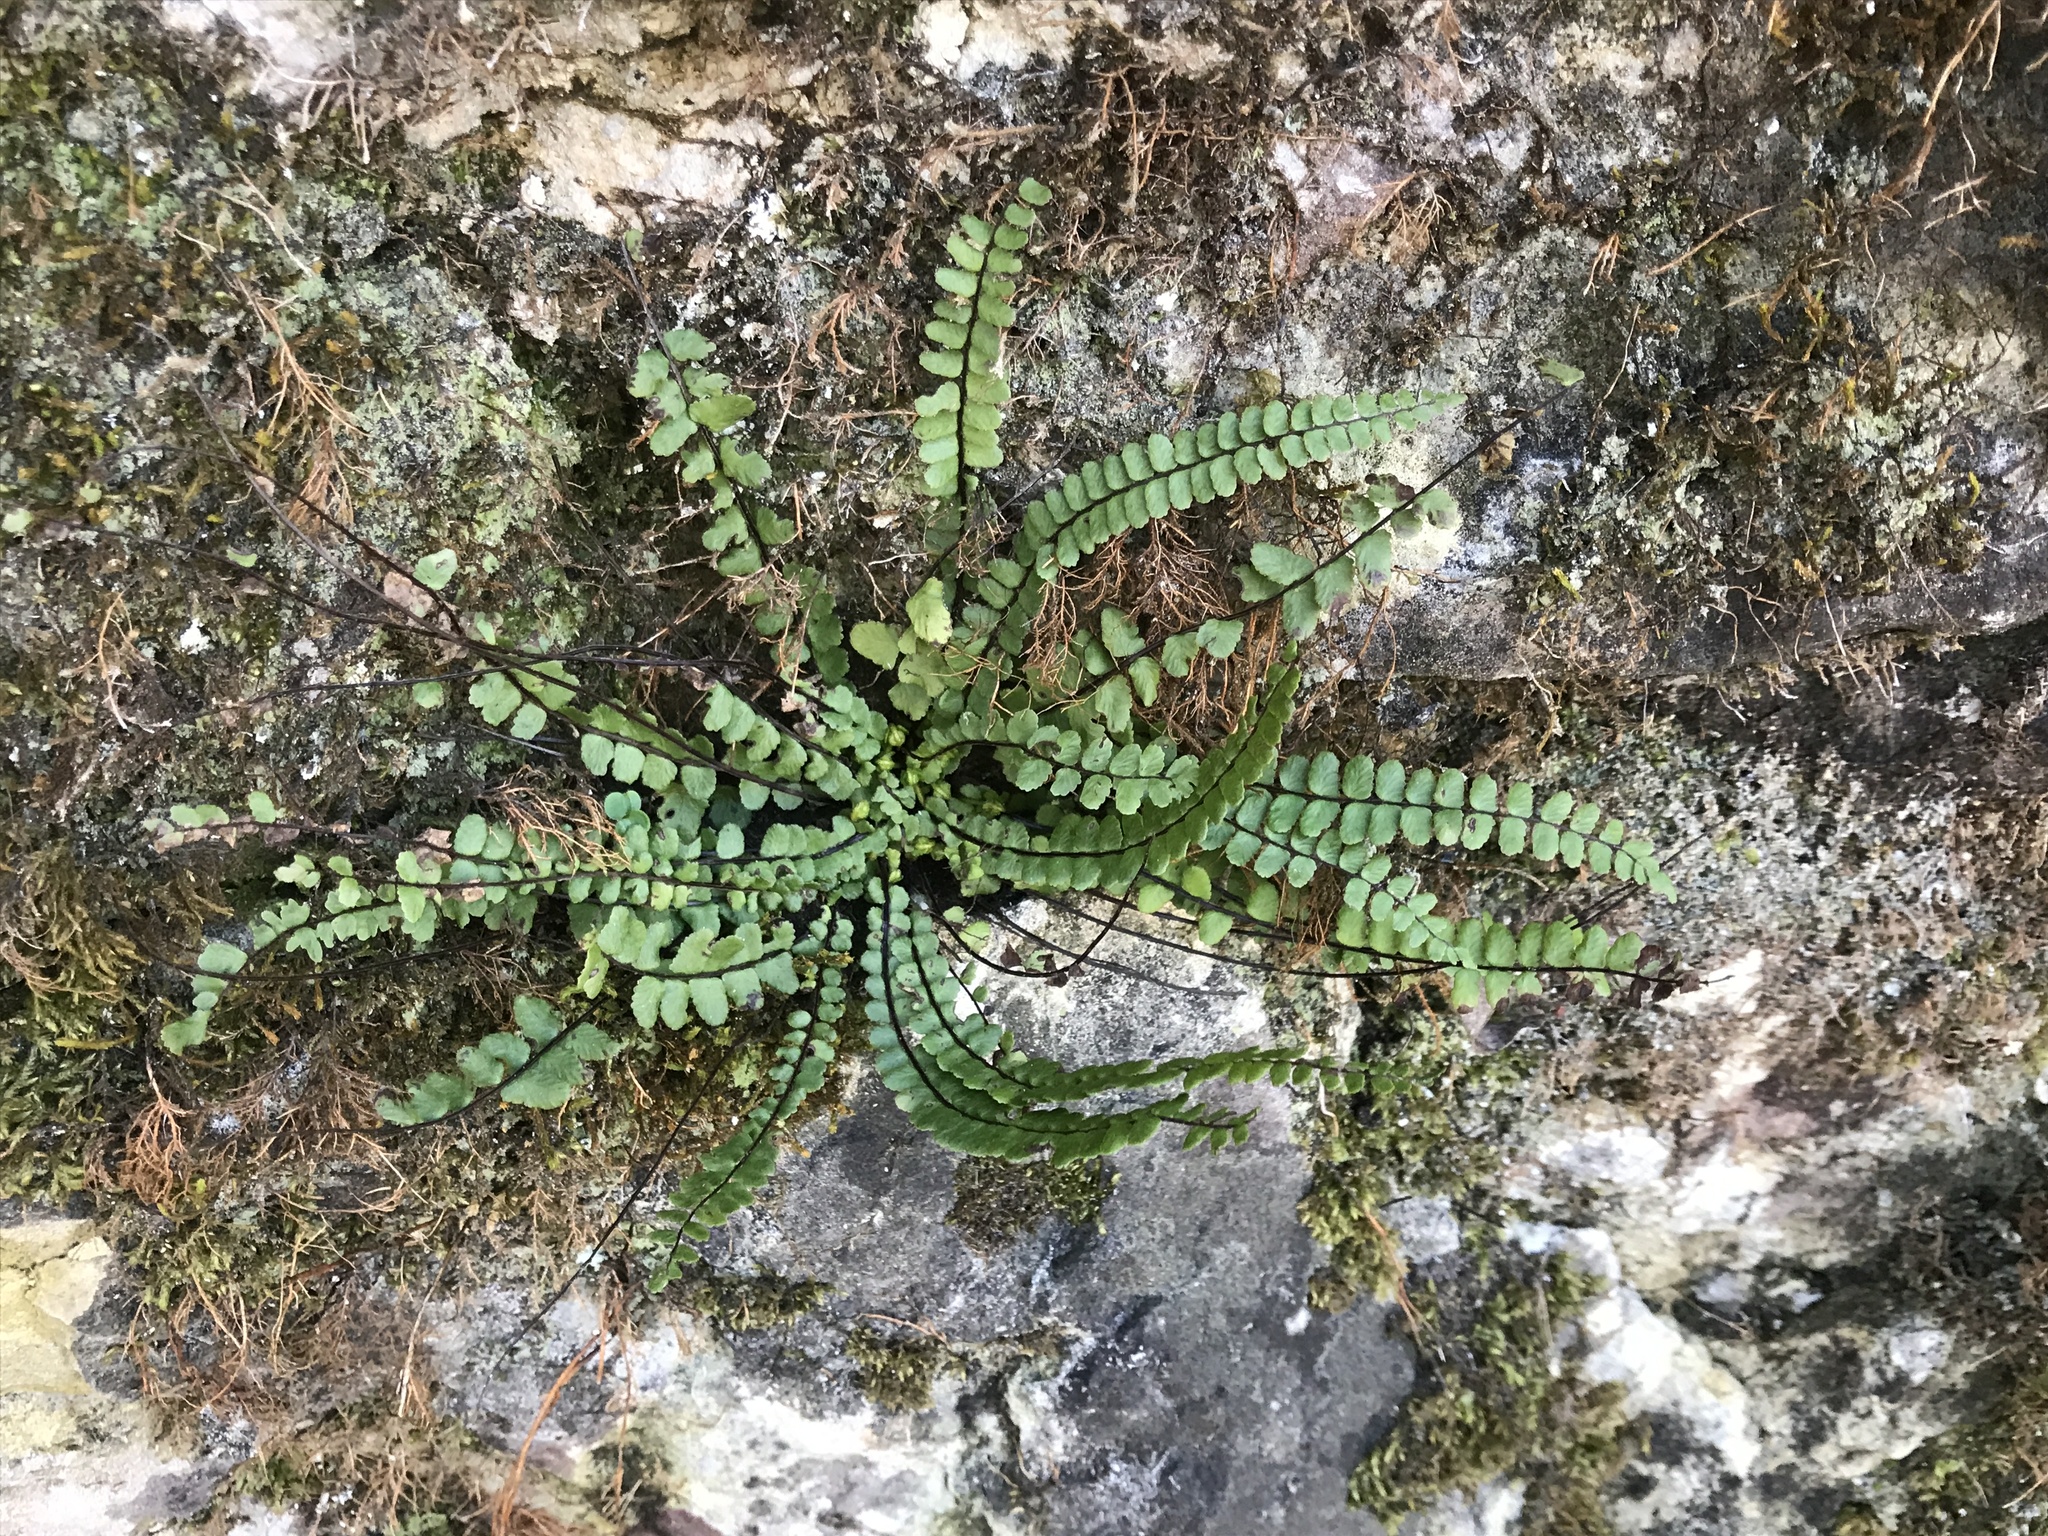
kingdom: Plantae
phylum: Tracheophyta
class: Polypodiopsida
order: Polypodiales
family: Aspleniaceae
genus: Asplenium
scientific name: Asplenium trichomanes
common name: Maidenhair spleenwort
